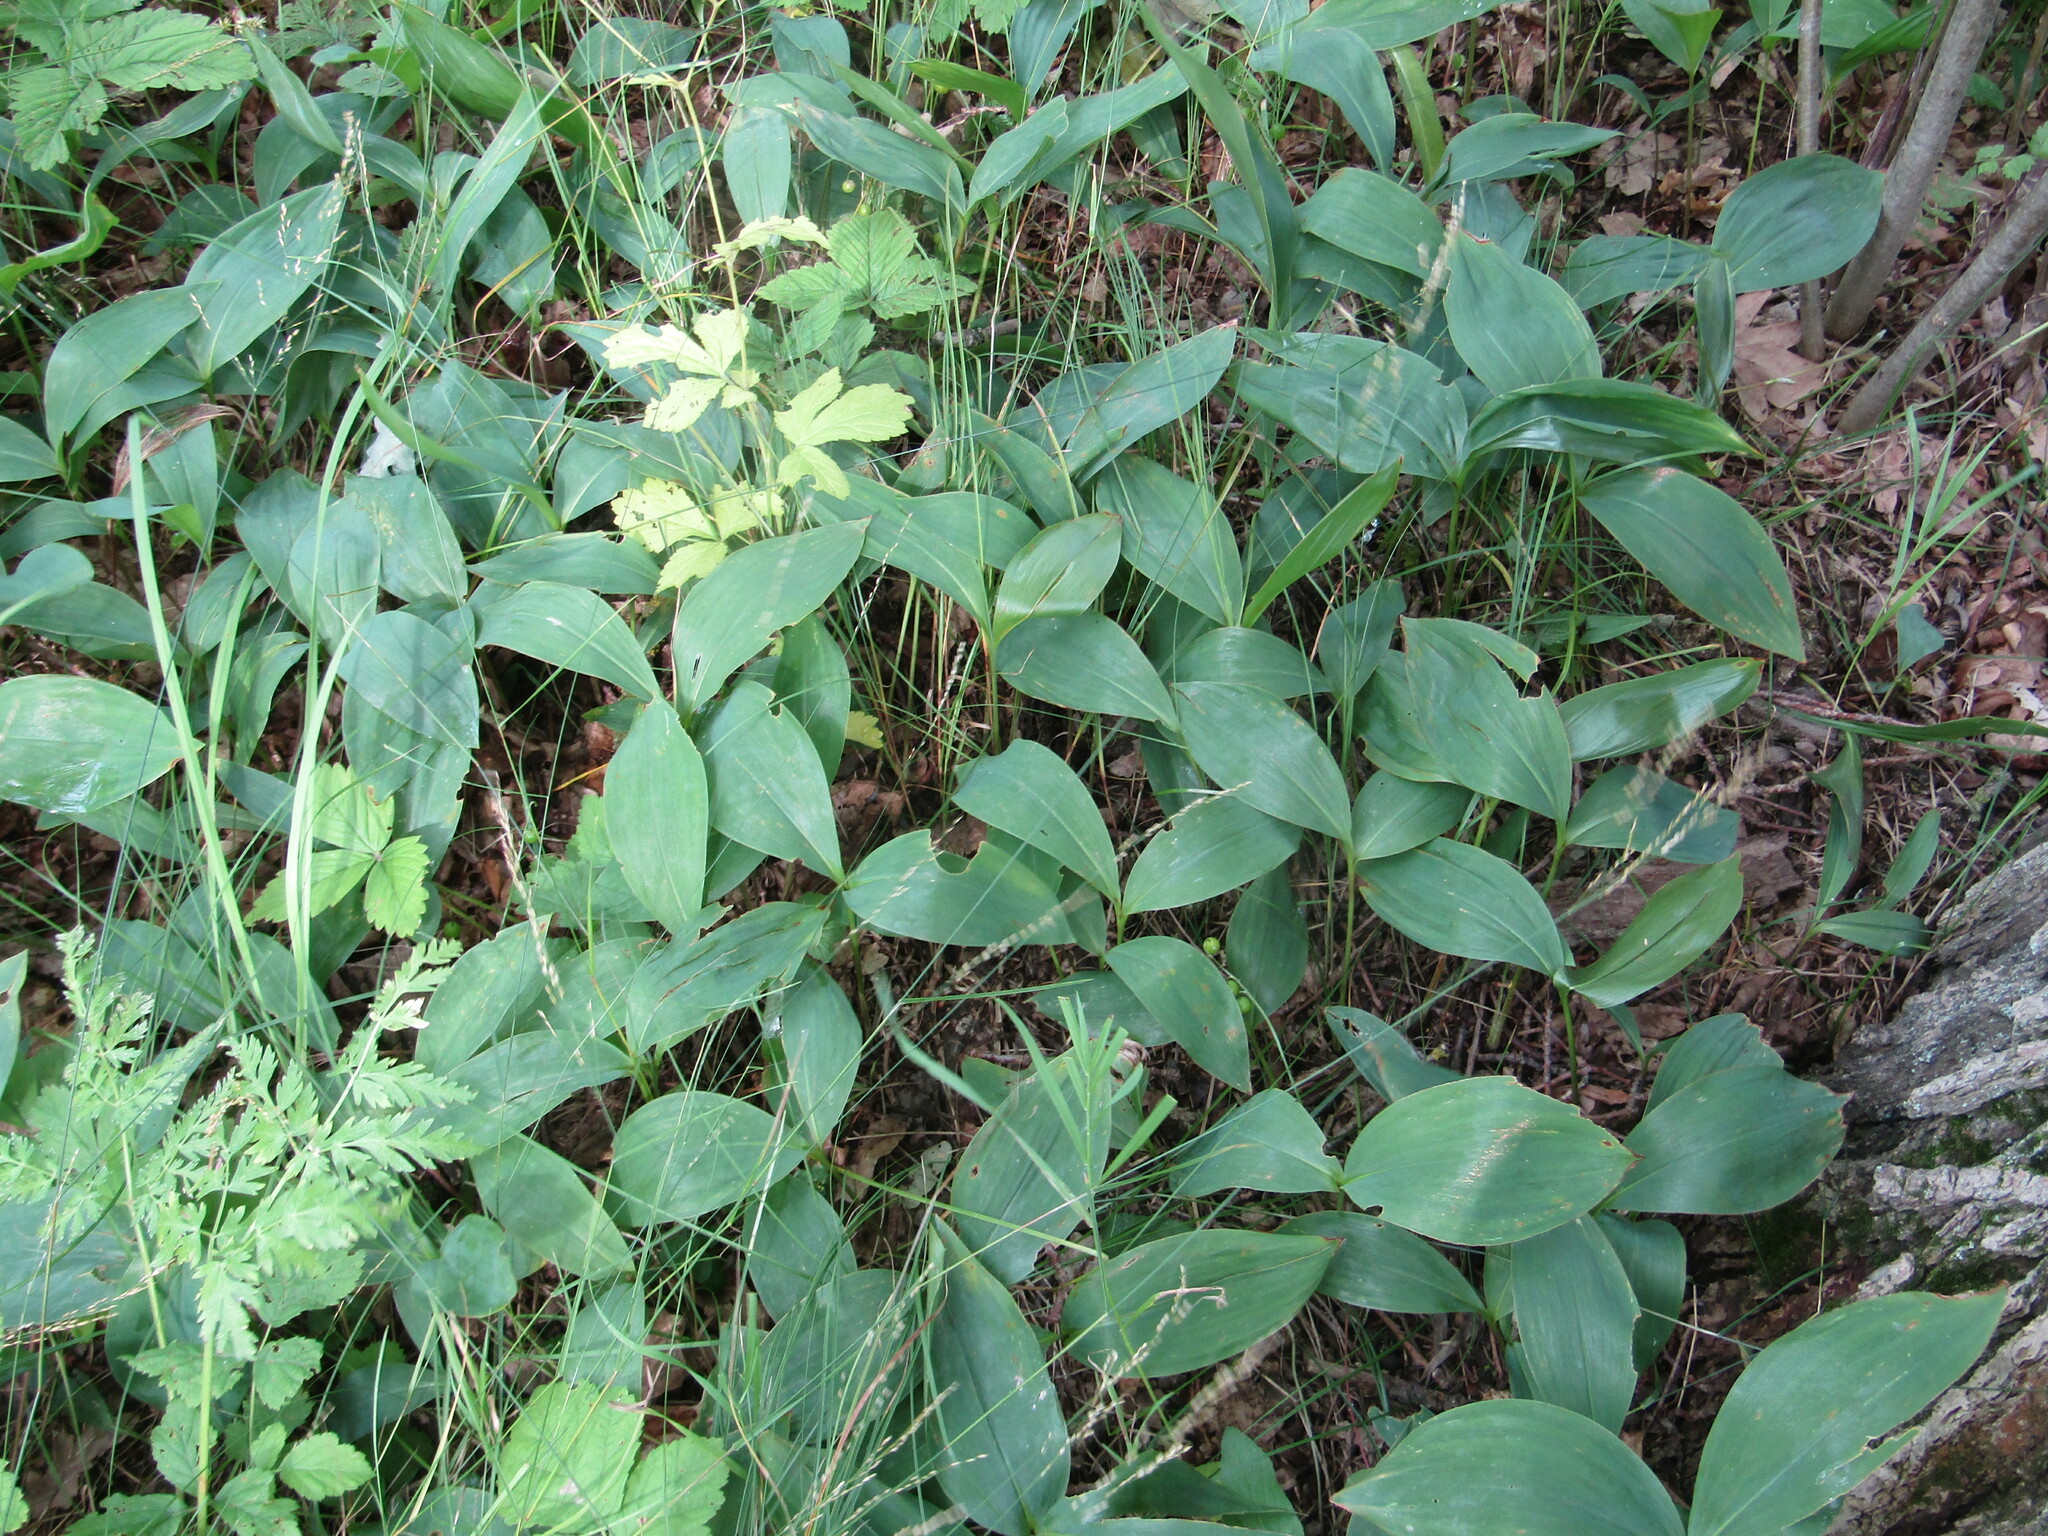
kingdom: Plantae
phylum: Tracheophyta
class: Liliopsida
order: Asparagales
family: Asparagaceae
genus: Convallaria
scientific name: Convallaria majalis
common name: Lily-of-the-valley
